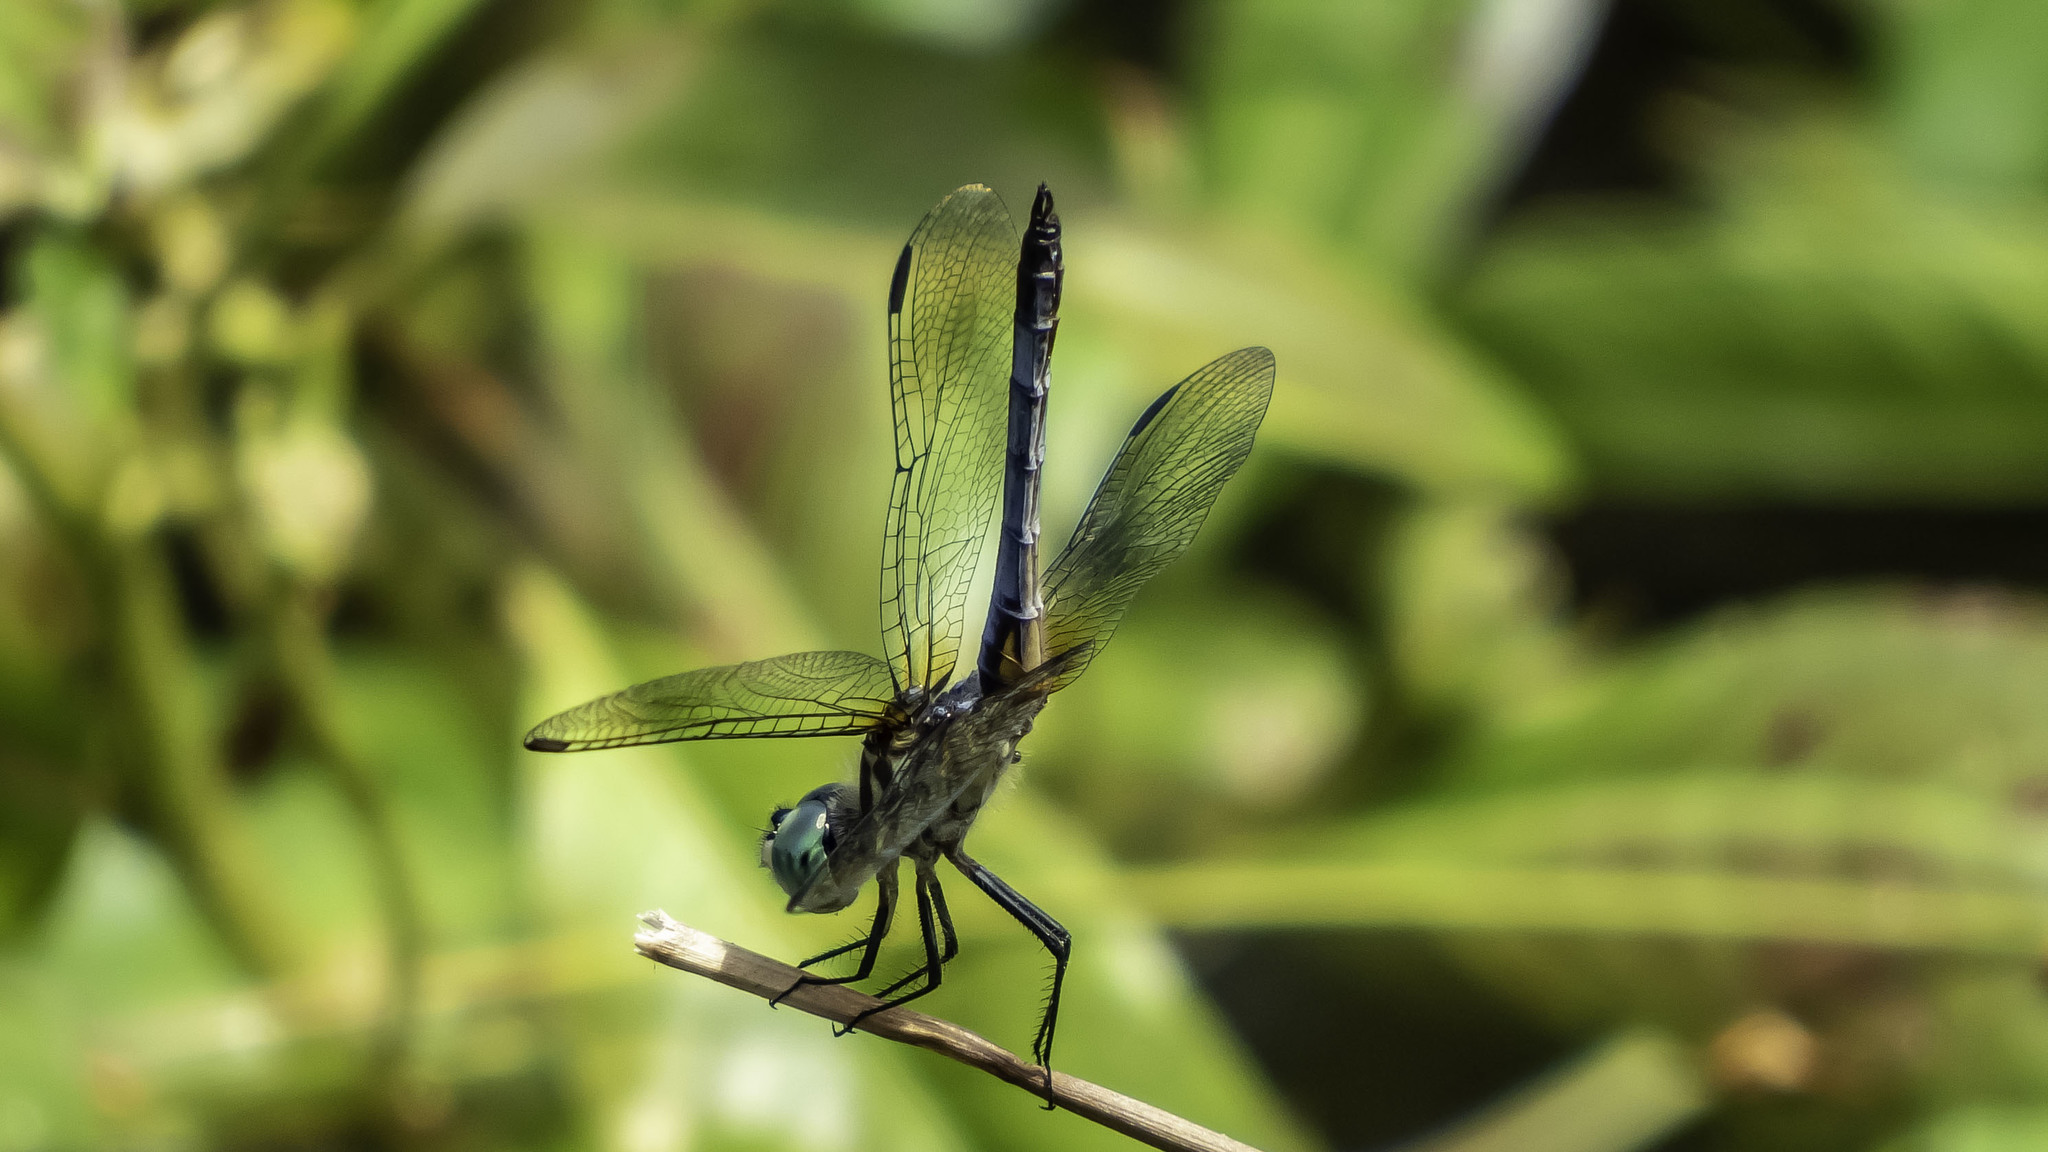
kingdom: Animalia
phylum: Arthropoda
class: Insecta
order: Odonata
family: Libellulidae
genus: Pachydiplax
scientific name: Pachydiplax longipennis
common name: Blue dasher
